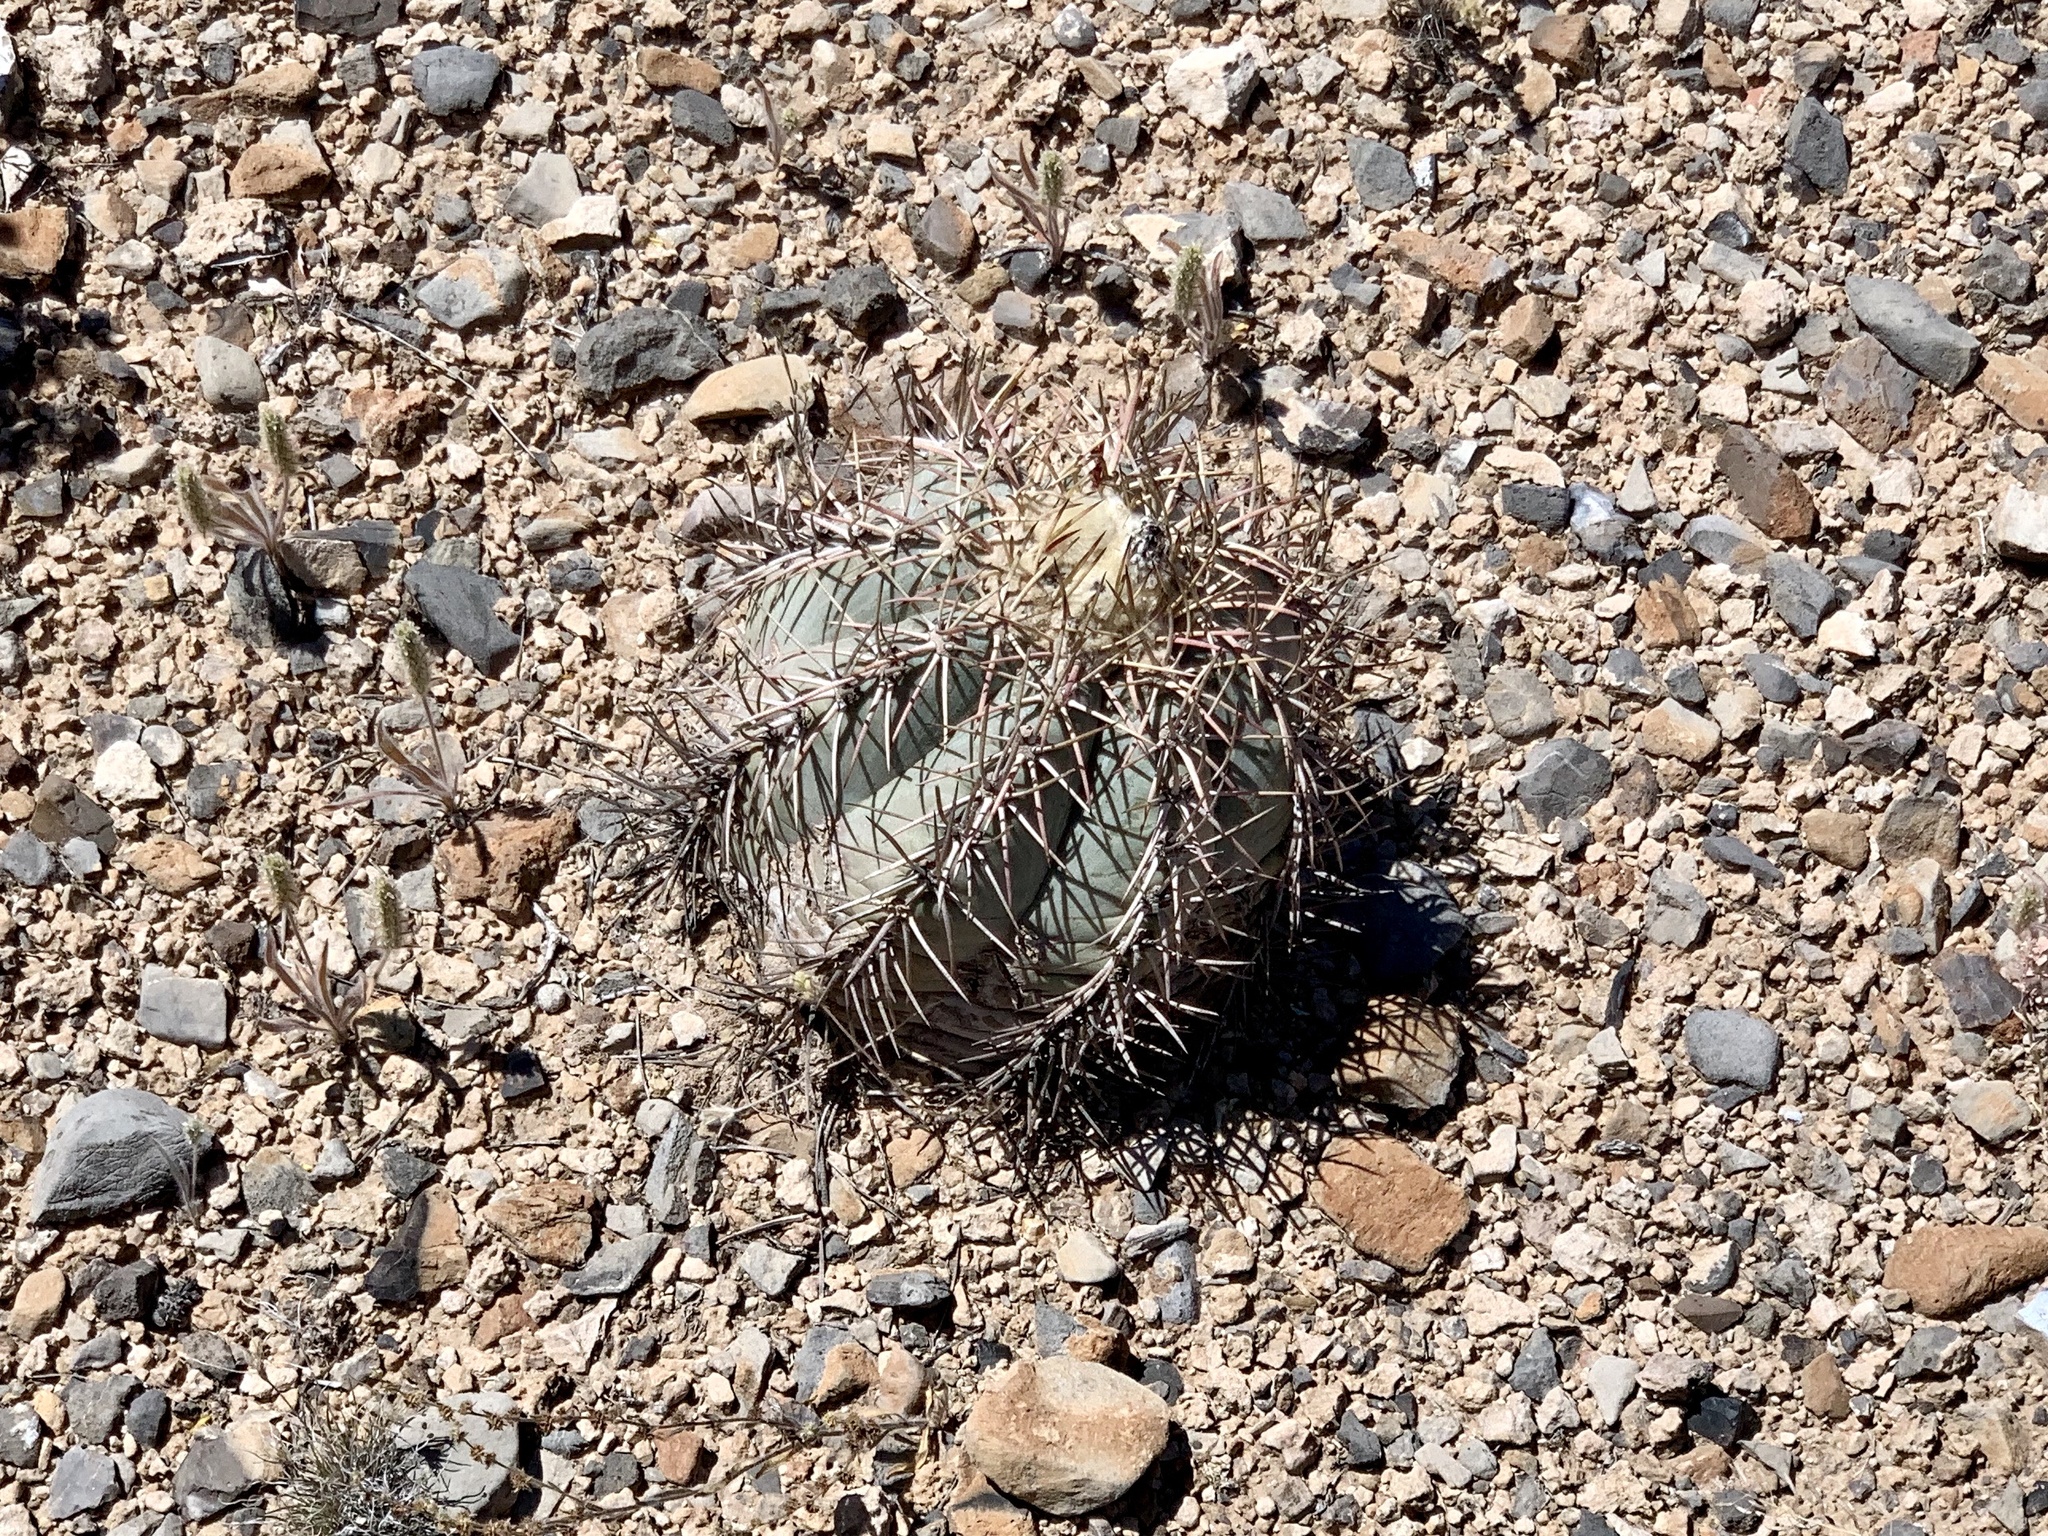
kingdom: Plantae
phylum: Tracheophyta
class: Magnoliopsida
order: Caryophyllales
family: Cactaceae
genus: Echinocactus
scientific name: Echinocactus horizonthalonius
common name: Devilshead
